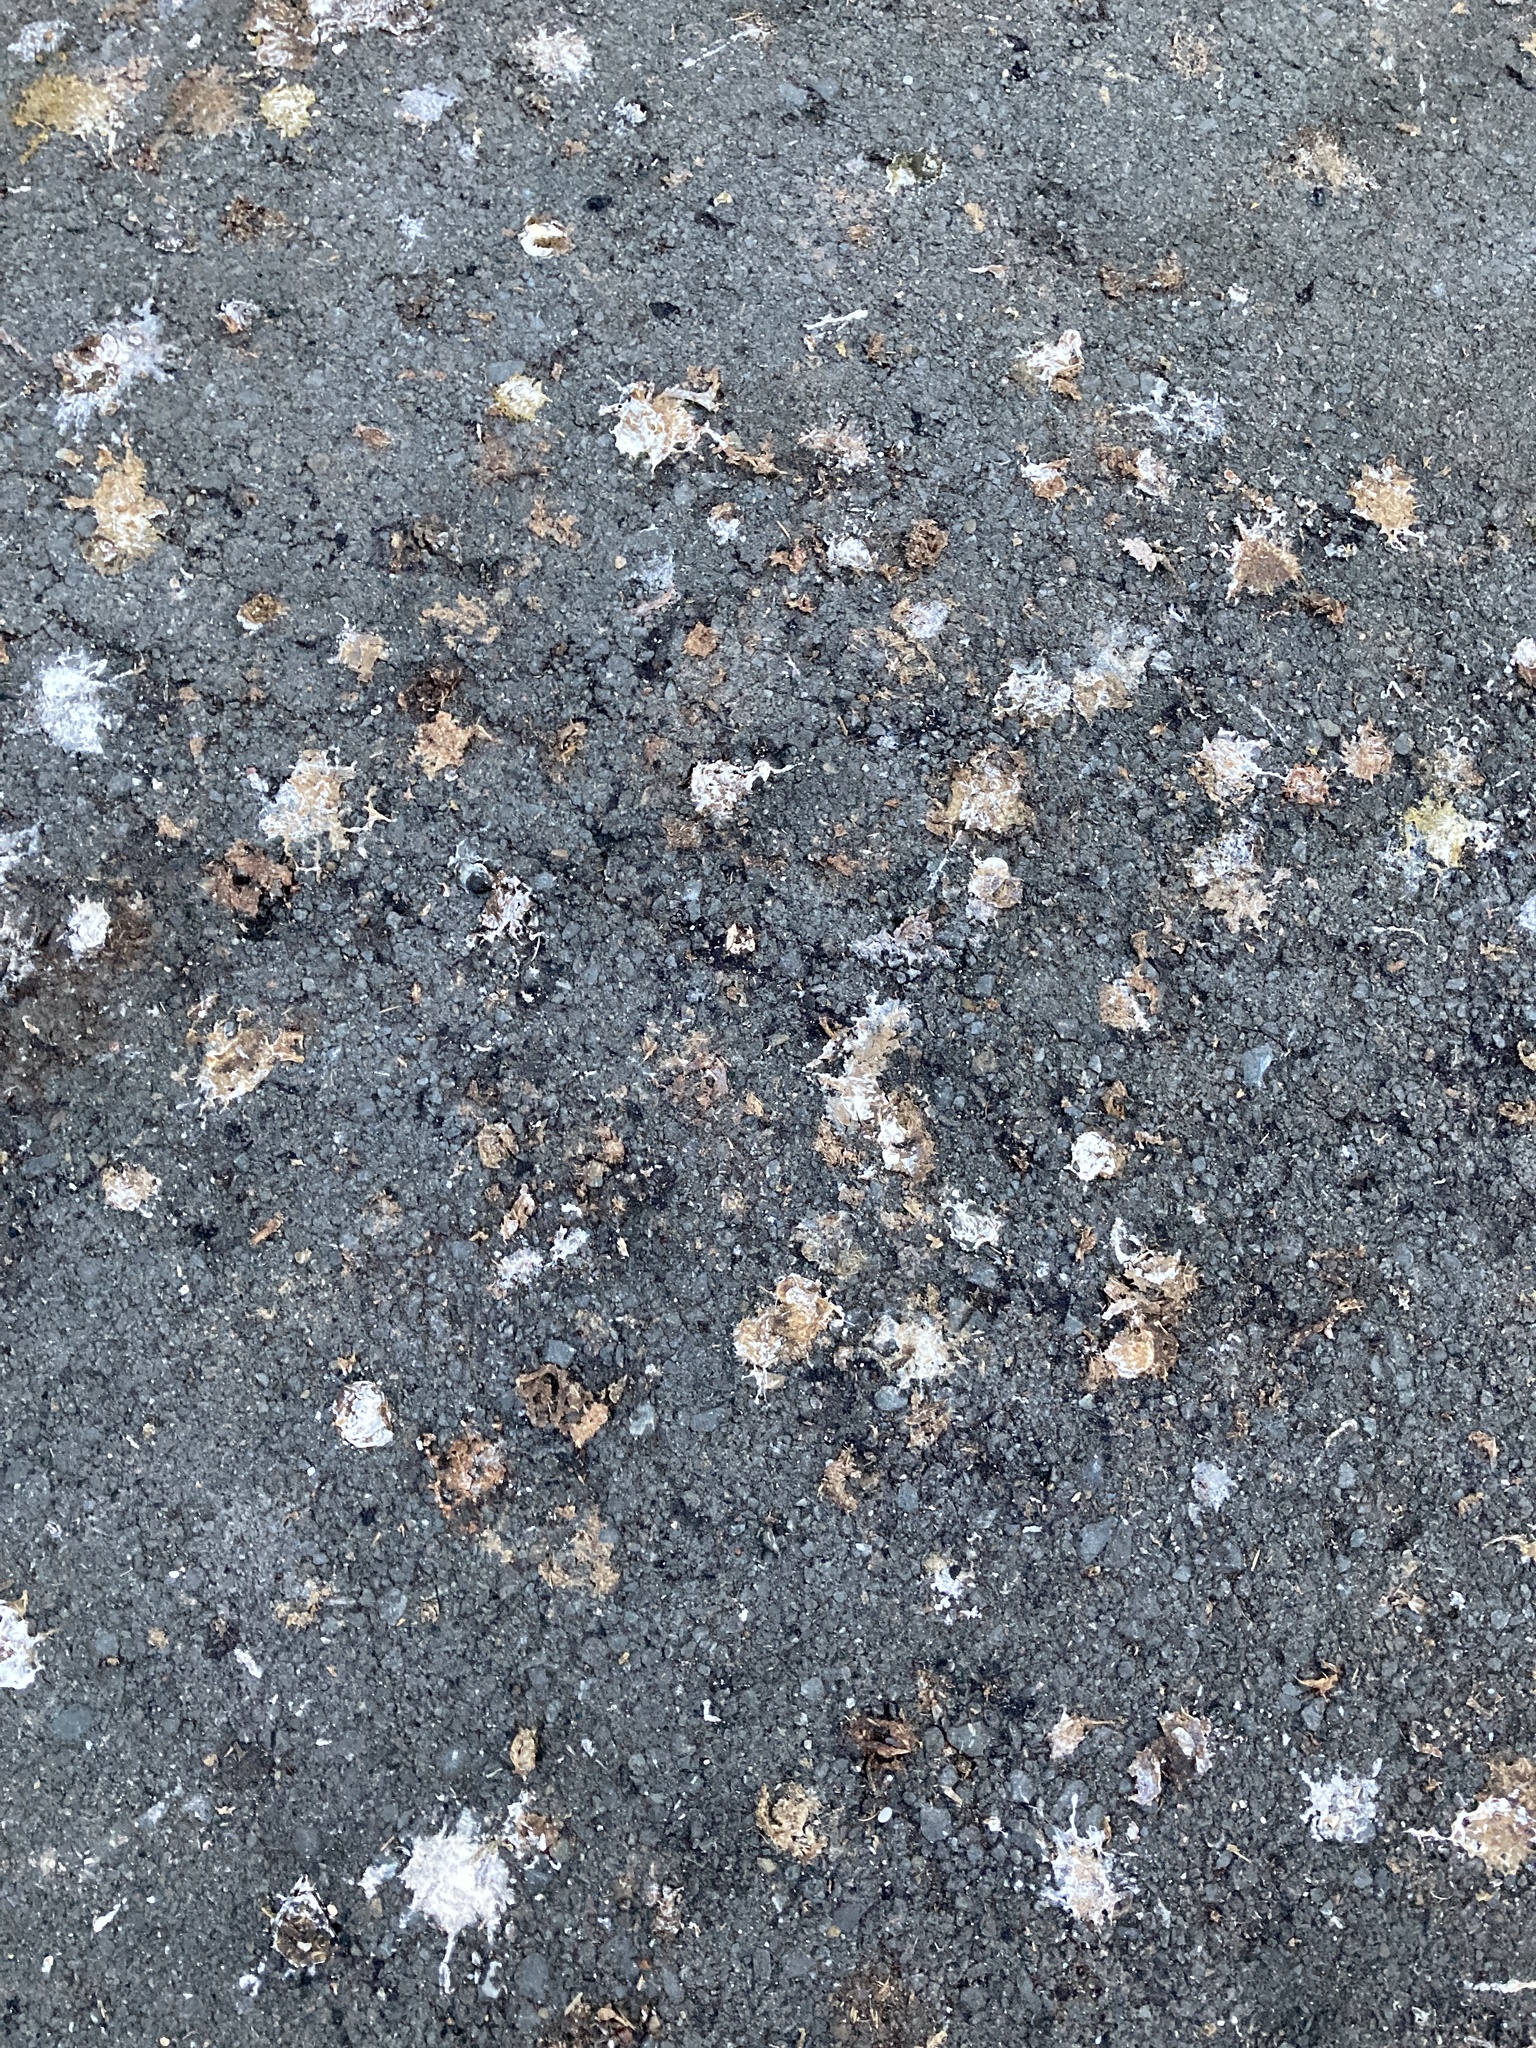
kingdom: Animalia
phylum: Chordata
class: Aves
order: Columbiformes
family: Columbidae
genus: Columba
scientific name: Columba livia
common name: Rock pigeon
